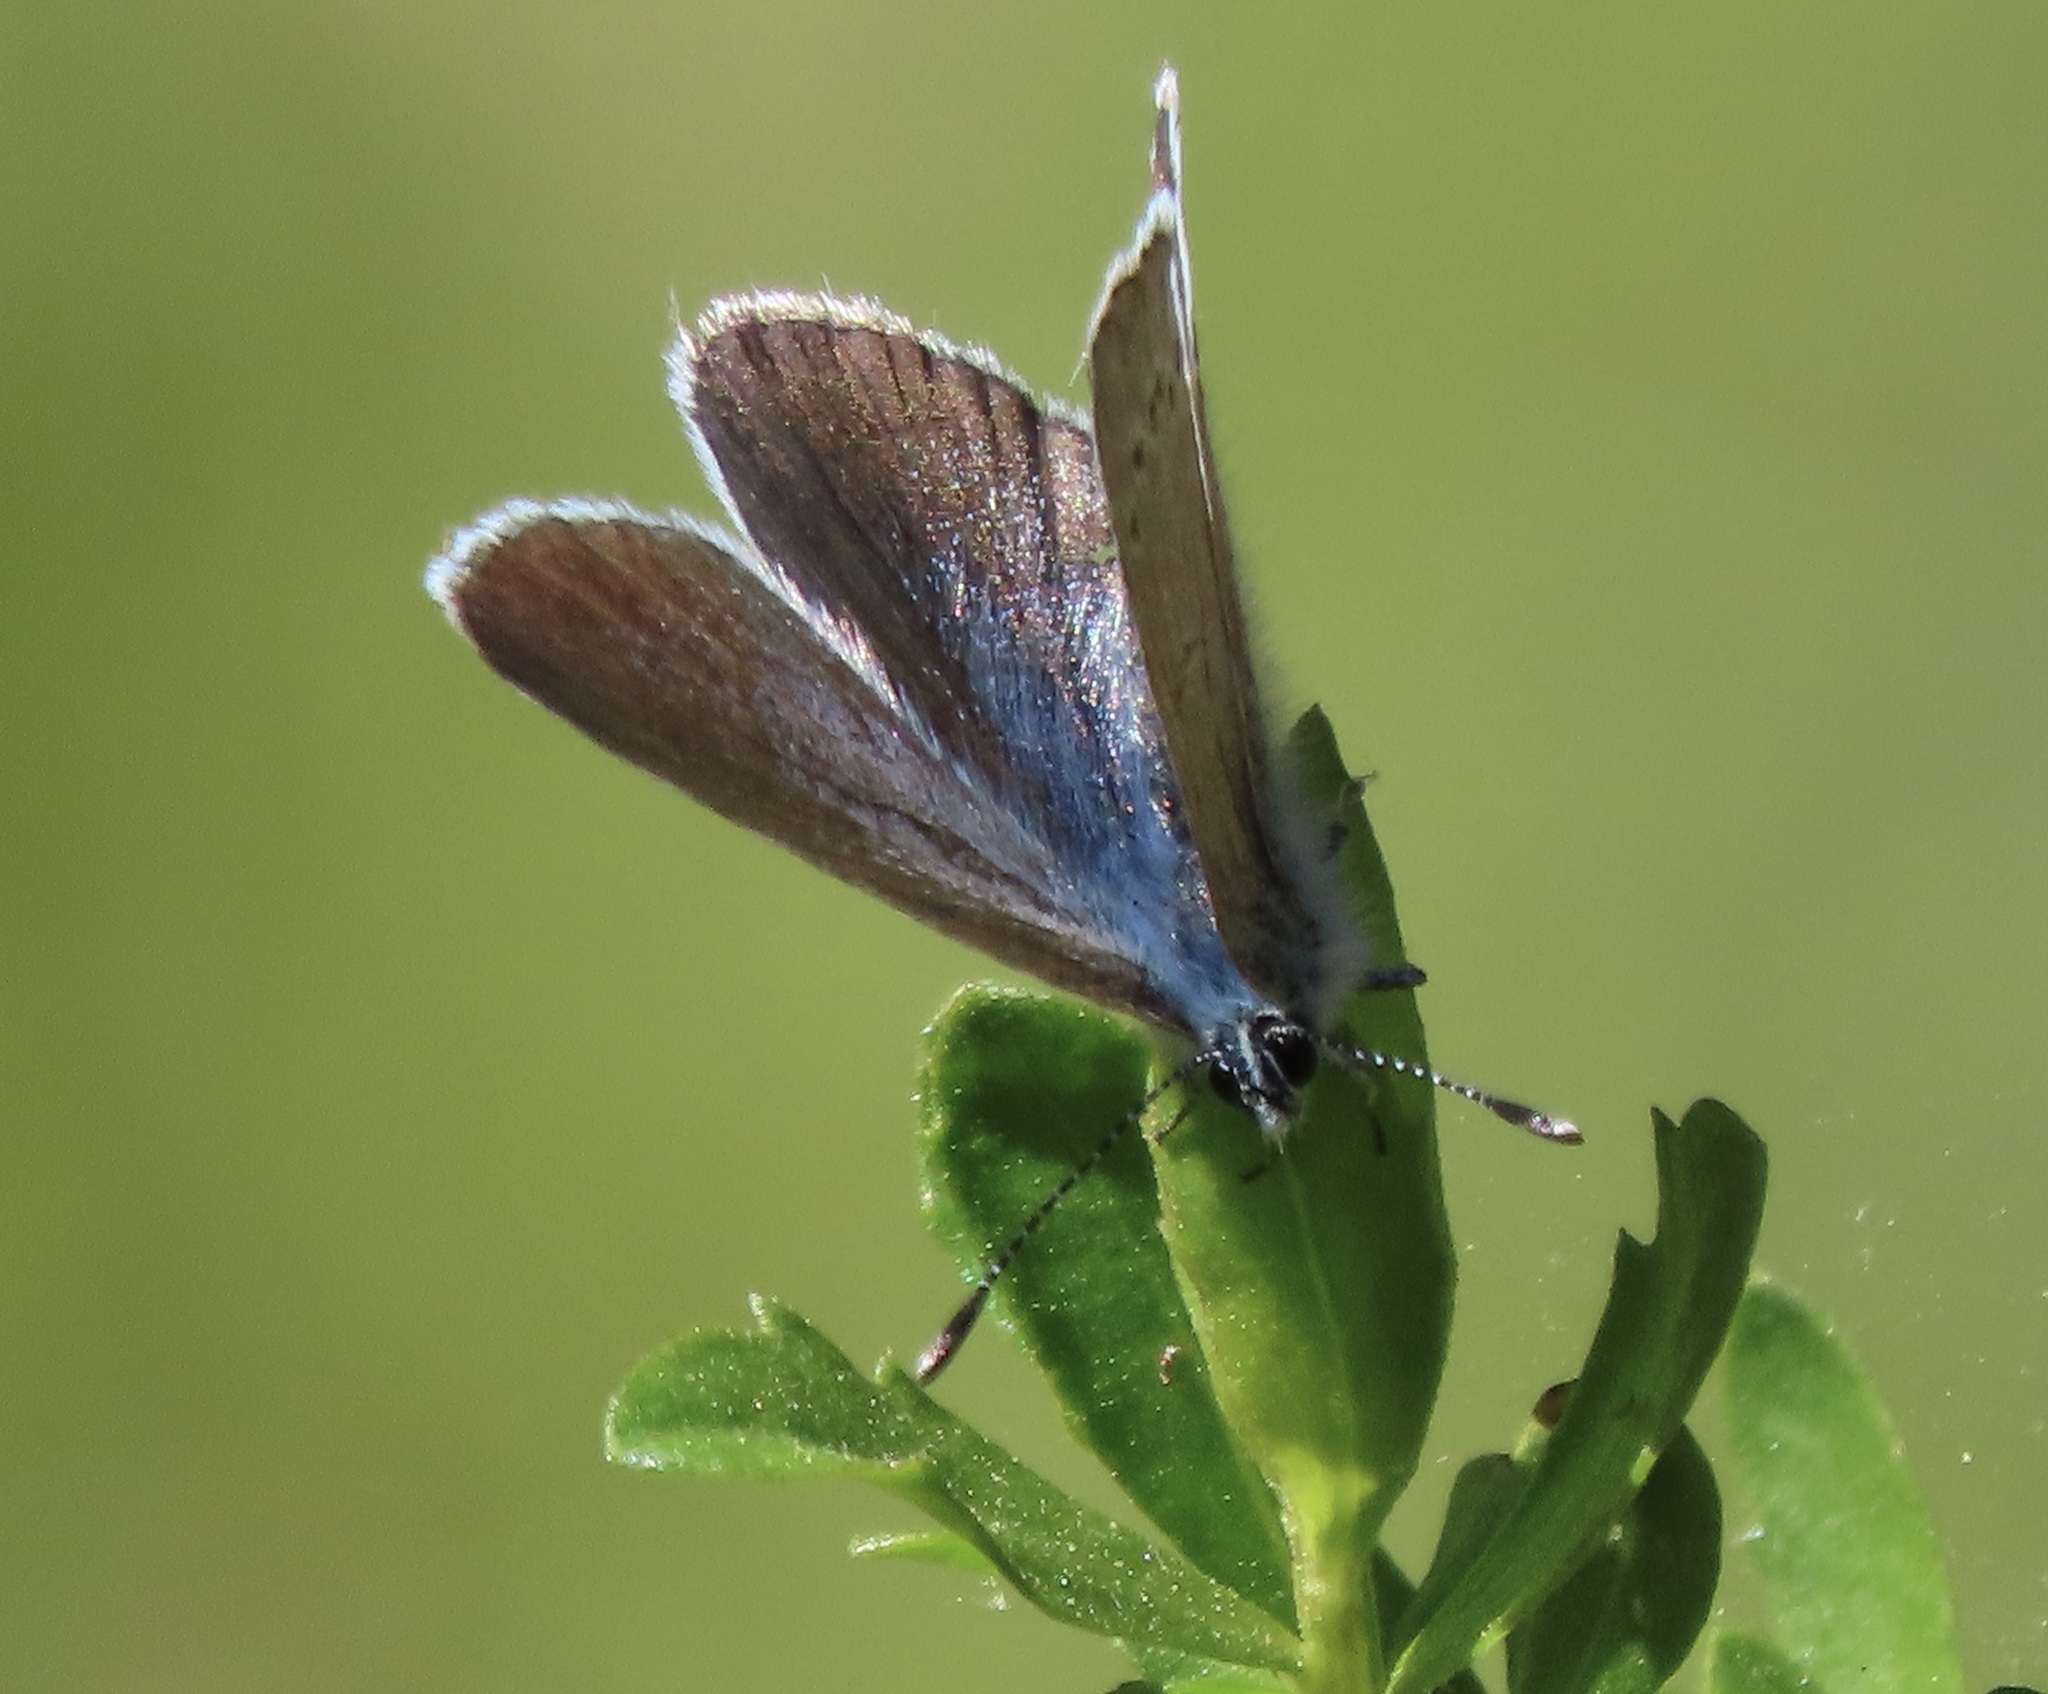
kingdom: Animalia
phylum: Arthropoda
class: Insecta
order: Lepidoptera
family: Lycaenidae
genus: Glaucopsyche
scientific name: Glaucopsyche lygdamus
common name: Silvery blue
